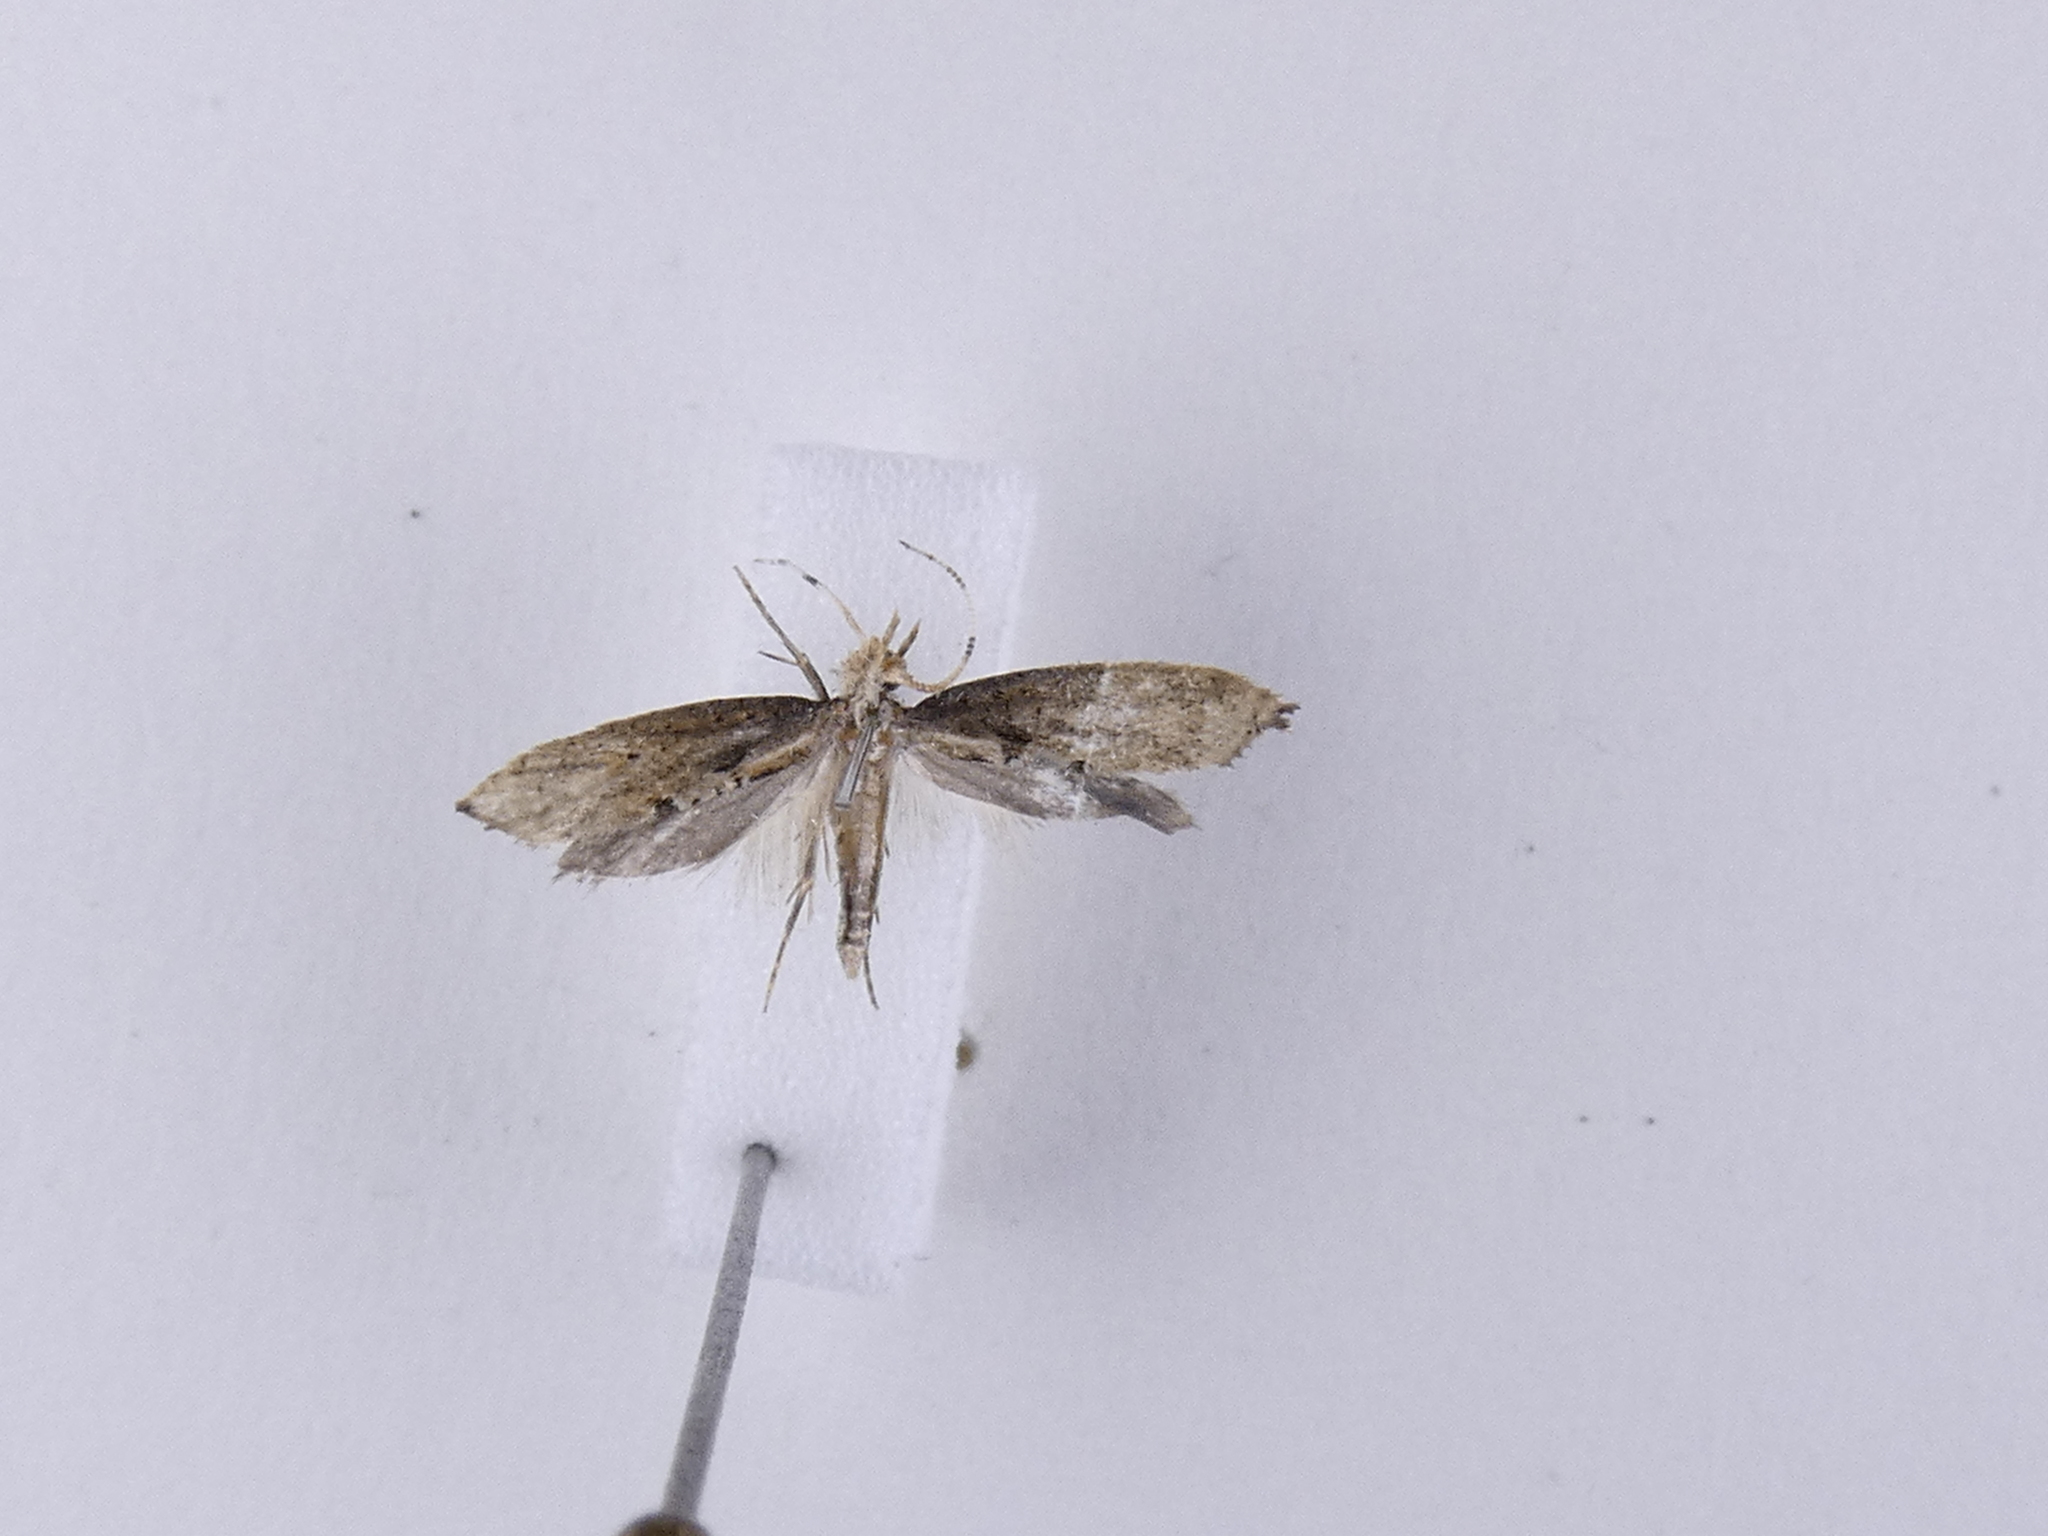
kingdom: Animalia
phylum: Arthropoda
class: Insecta
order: Lepidoptera
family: Plutellidae
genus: Leuroperna
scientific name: Leuroperna sera
